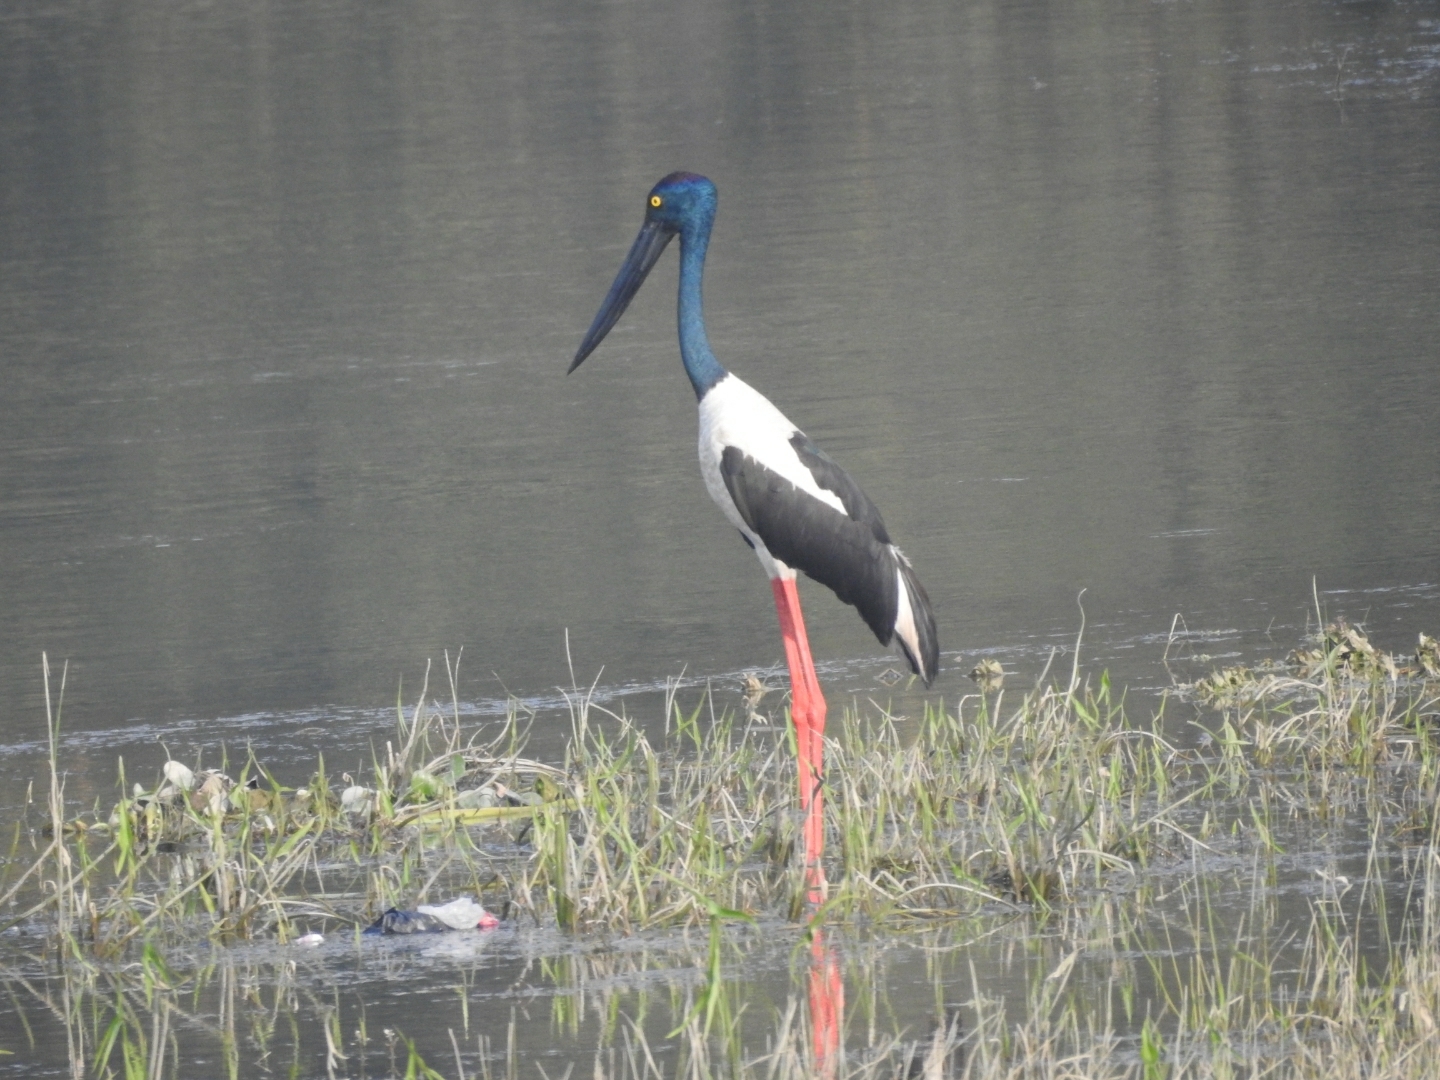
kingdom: Animalia
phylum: Chordata
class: Aves
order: Ciconiiformes
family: Ciconiidae
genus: Ephippiorhynchus
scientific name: Ephippiorhynchus asiaticus
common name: Black-necked stork
